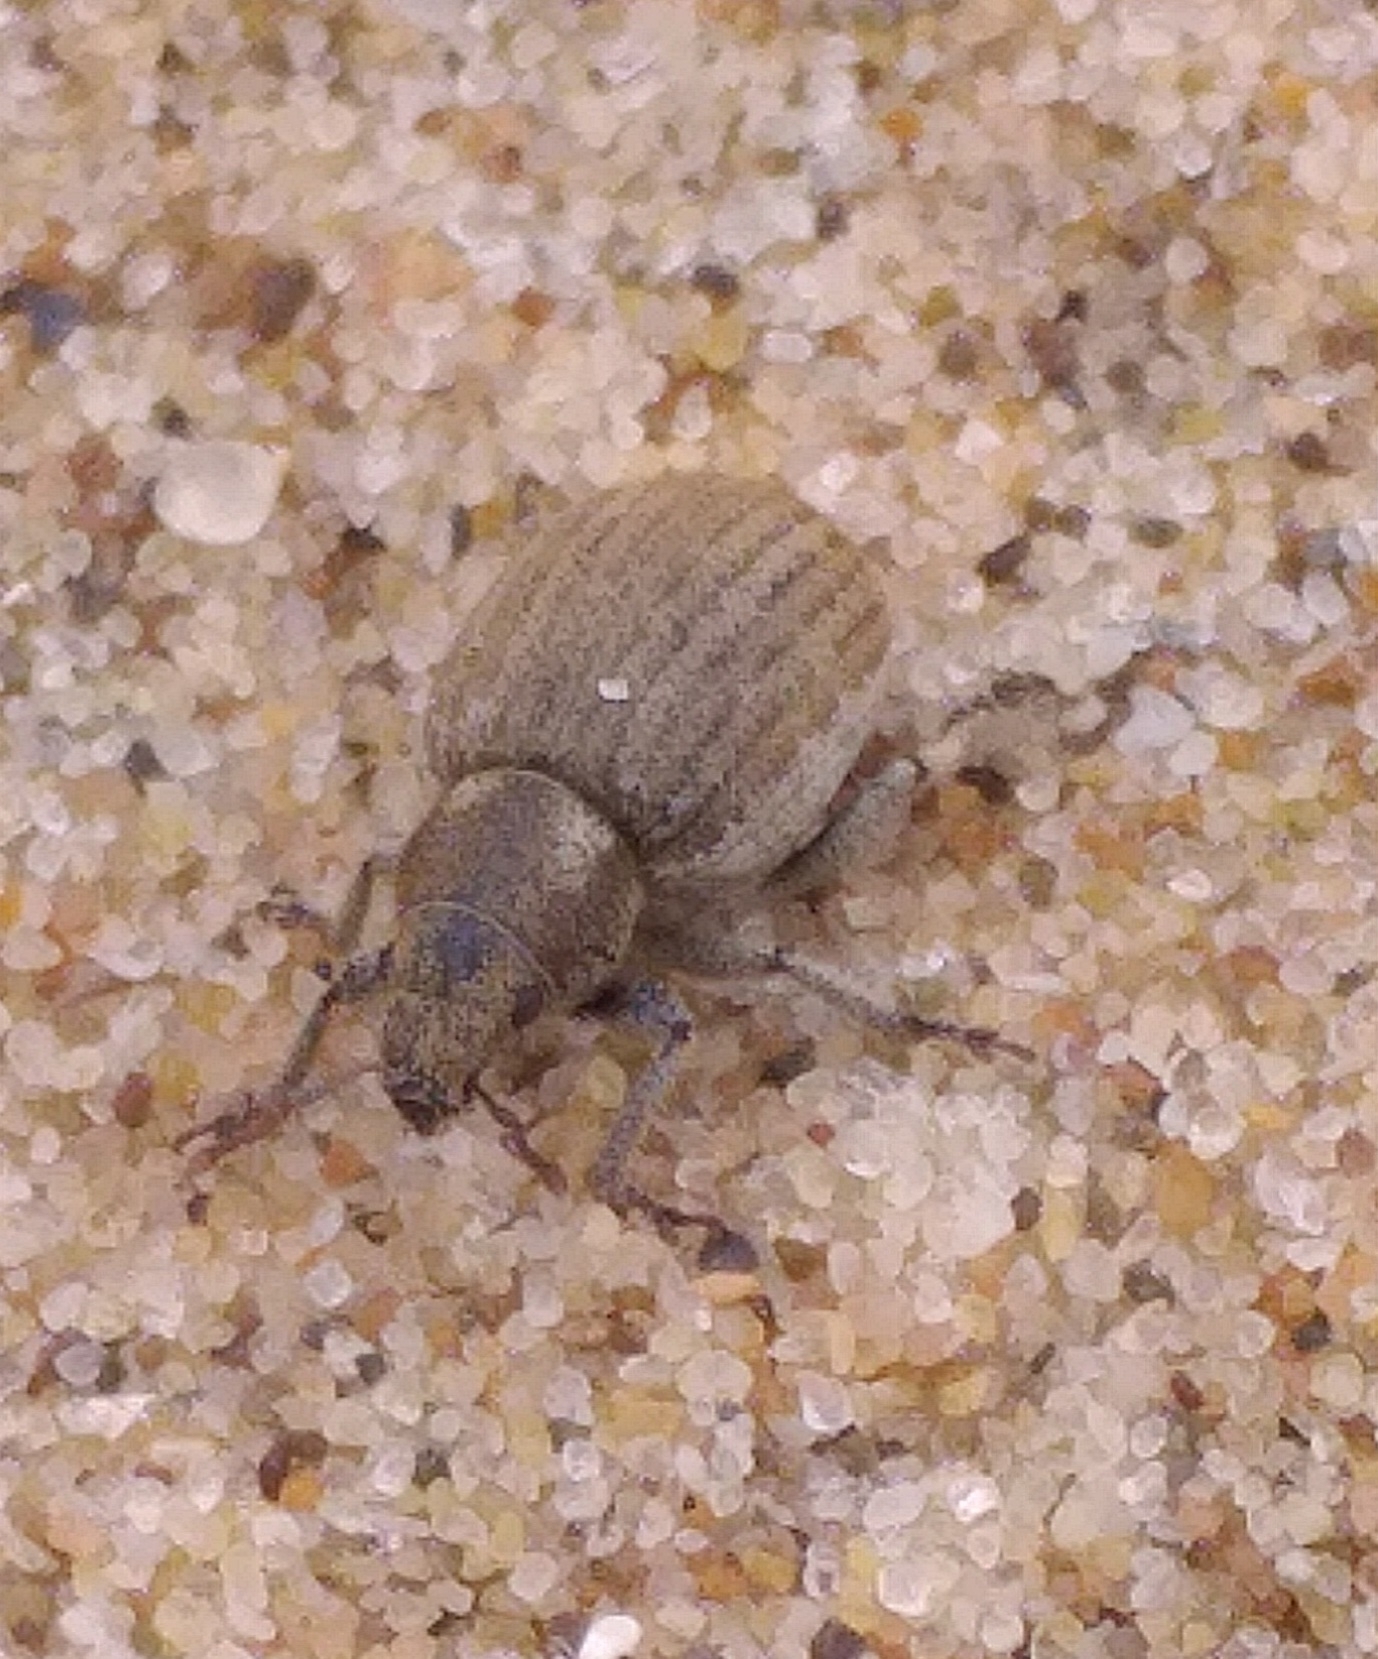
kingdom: Animalia
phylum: Arthropoda
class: Insecta
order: Coleoptera
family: Curculionidae
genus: Philopedon
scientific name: Philopedon plagiatum
